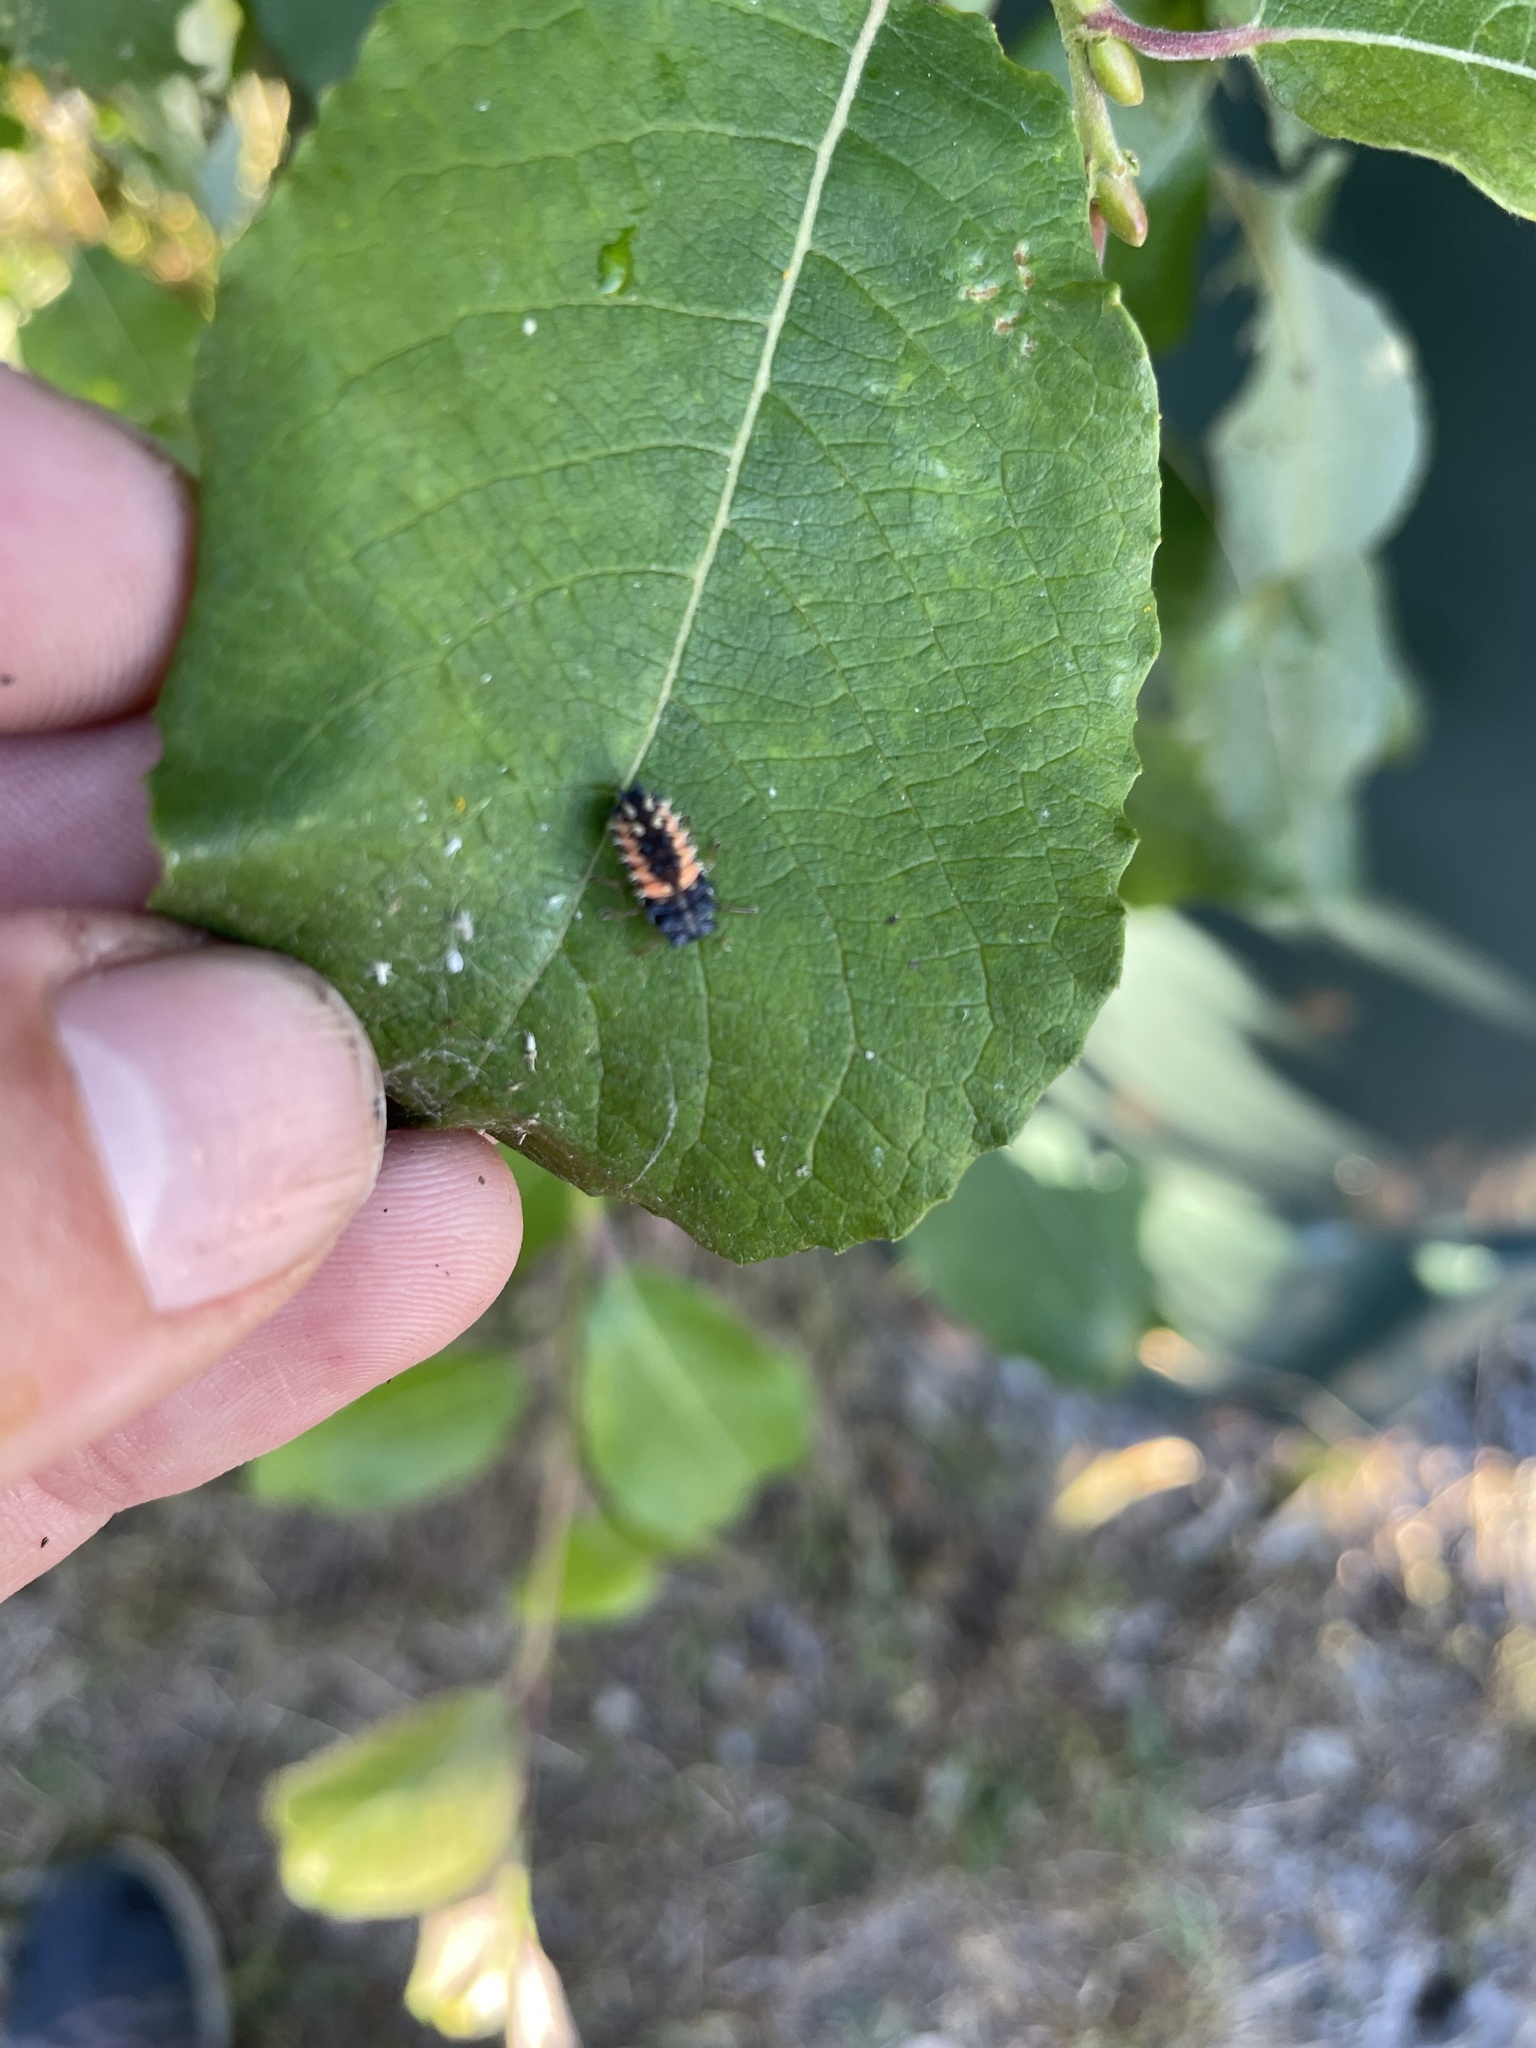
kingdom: Animalia
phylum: Arthropoda
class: Insecta
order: Coleoptera
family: Coccinellidae
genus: Harmonia
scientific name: Harmonia axyridis
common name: Harlequin ladybird
